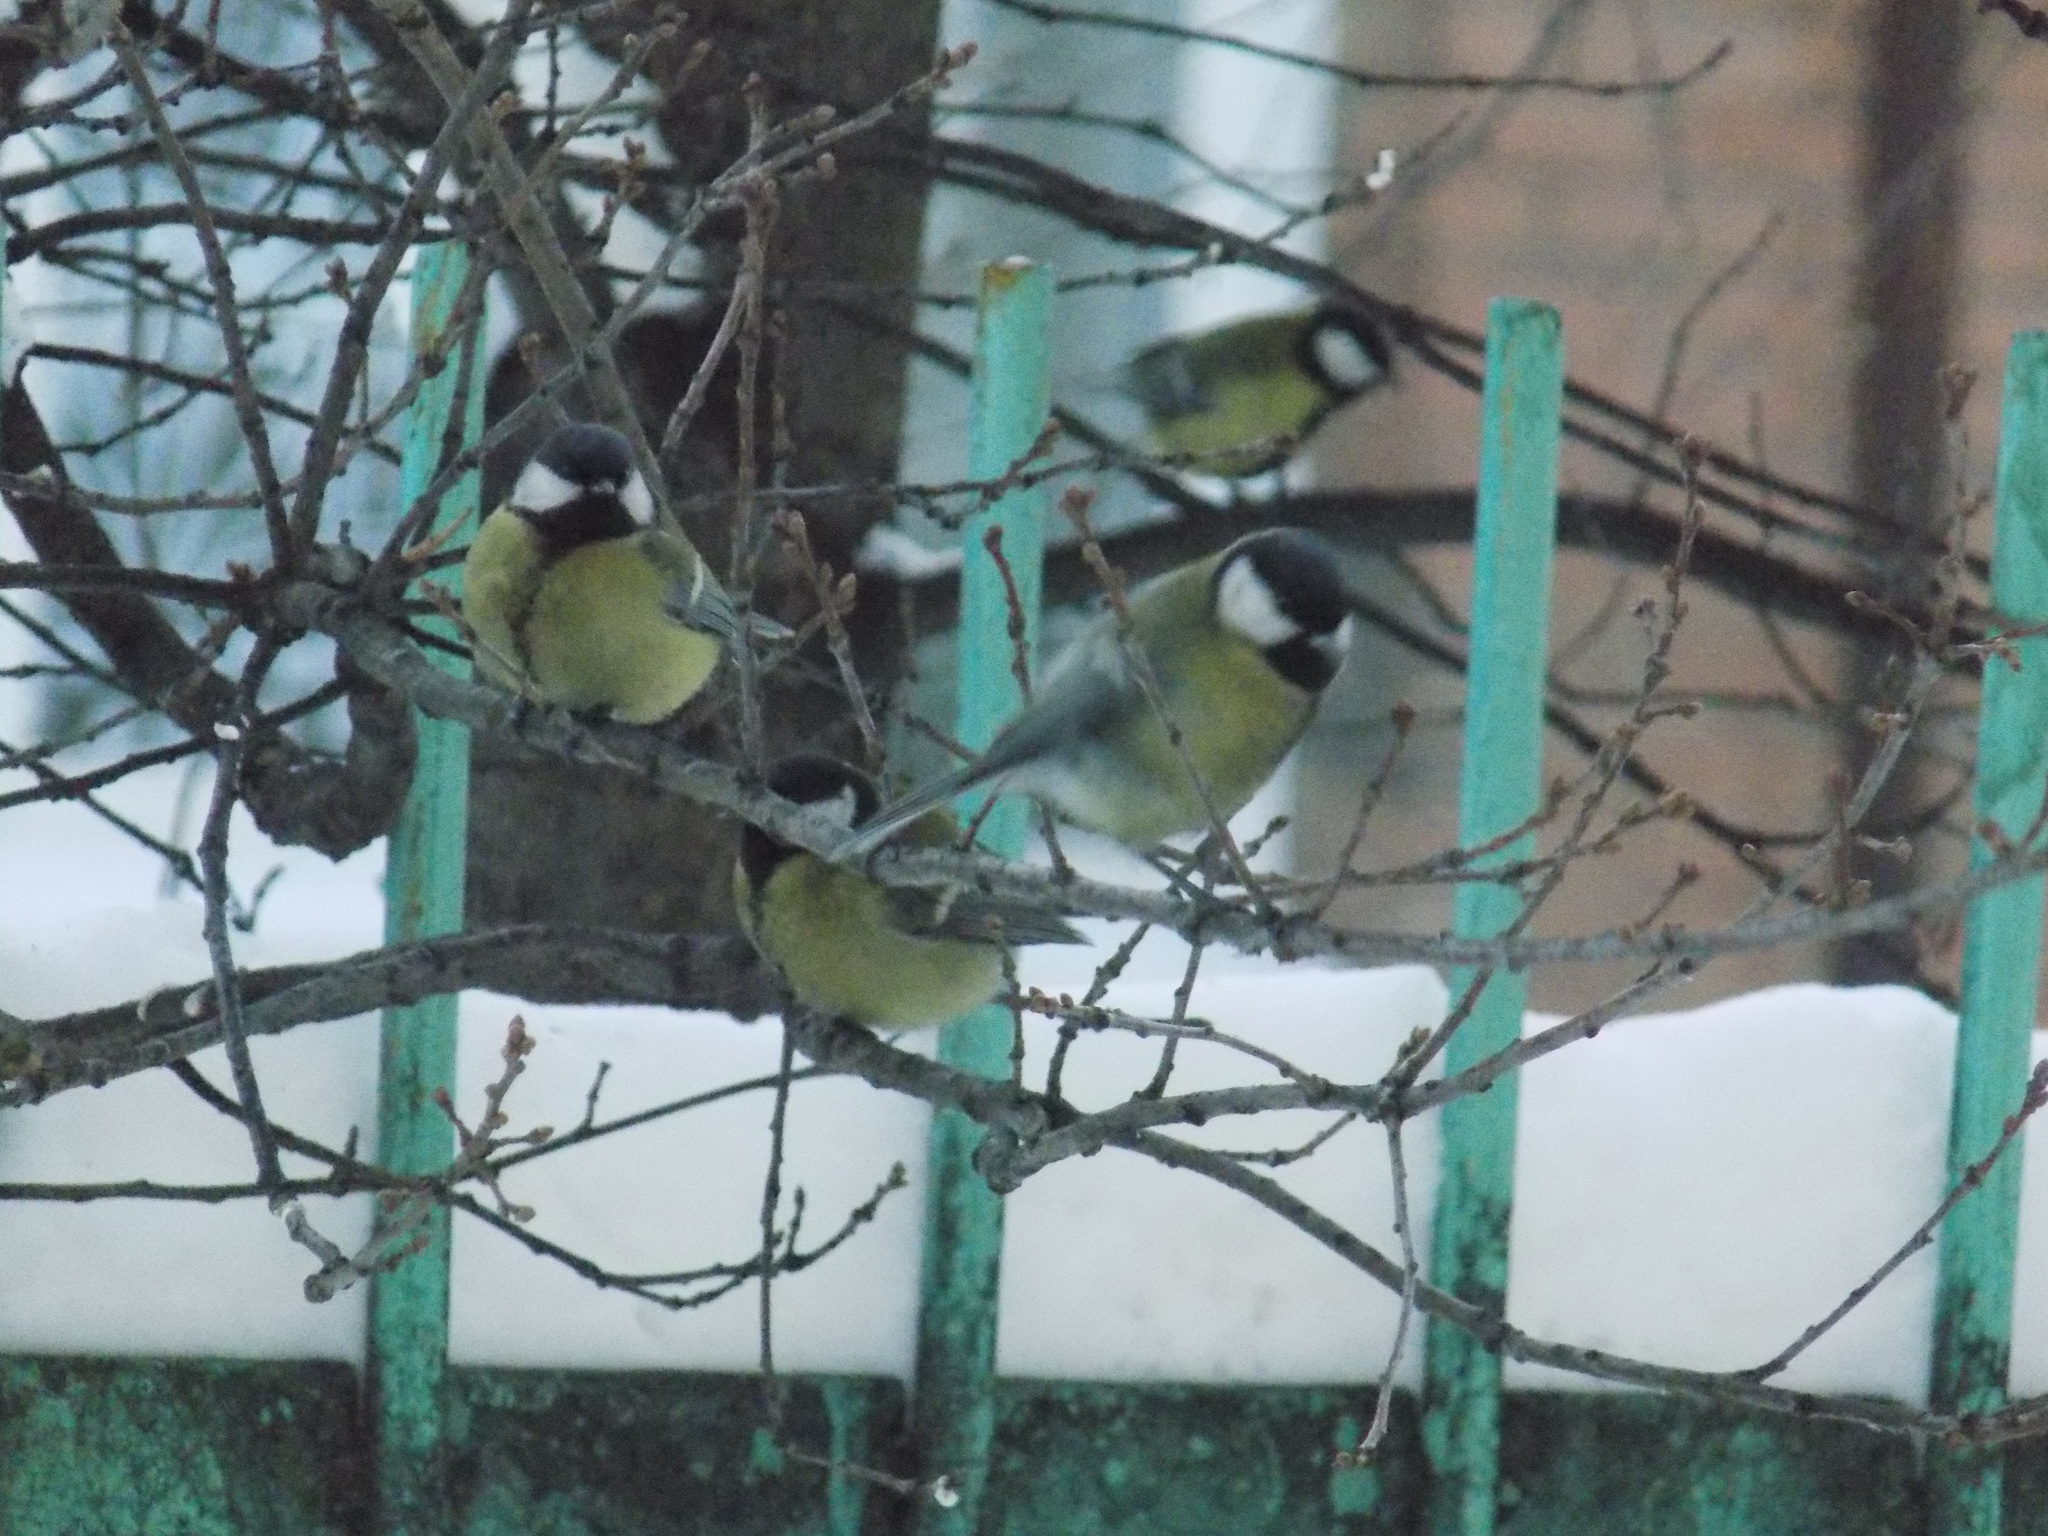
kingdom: Animalia
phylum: Chordata
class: Aves
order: Passeriformes
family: Paridae
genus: Parus
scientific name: Parus major
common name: Great tit
